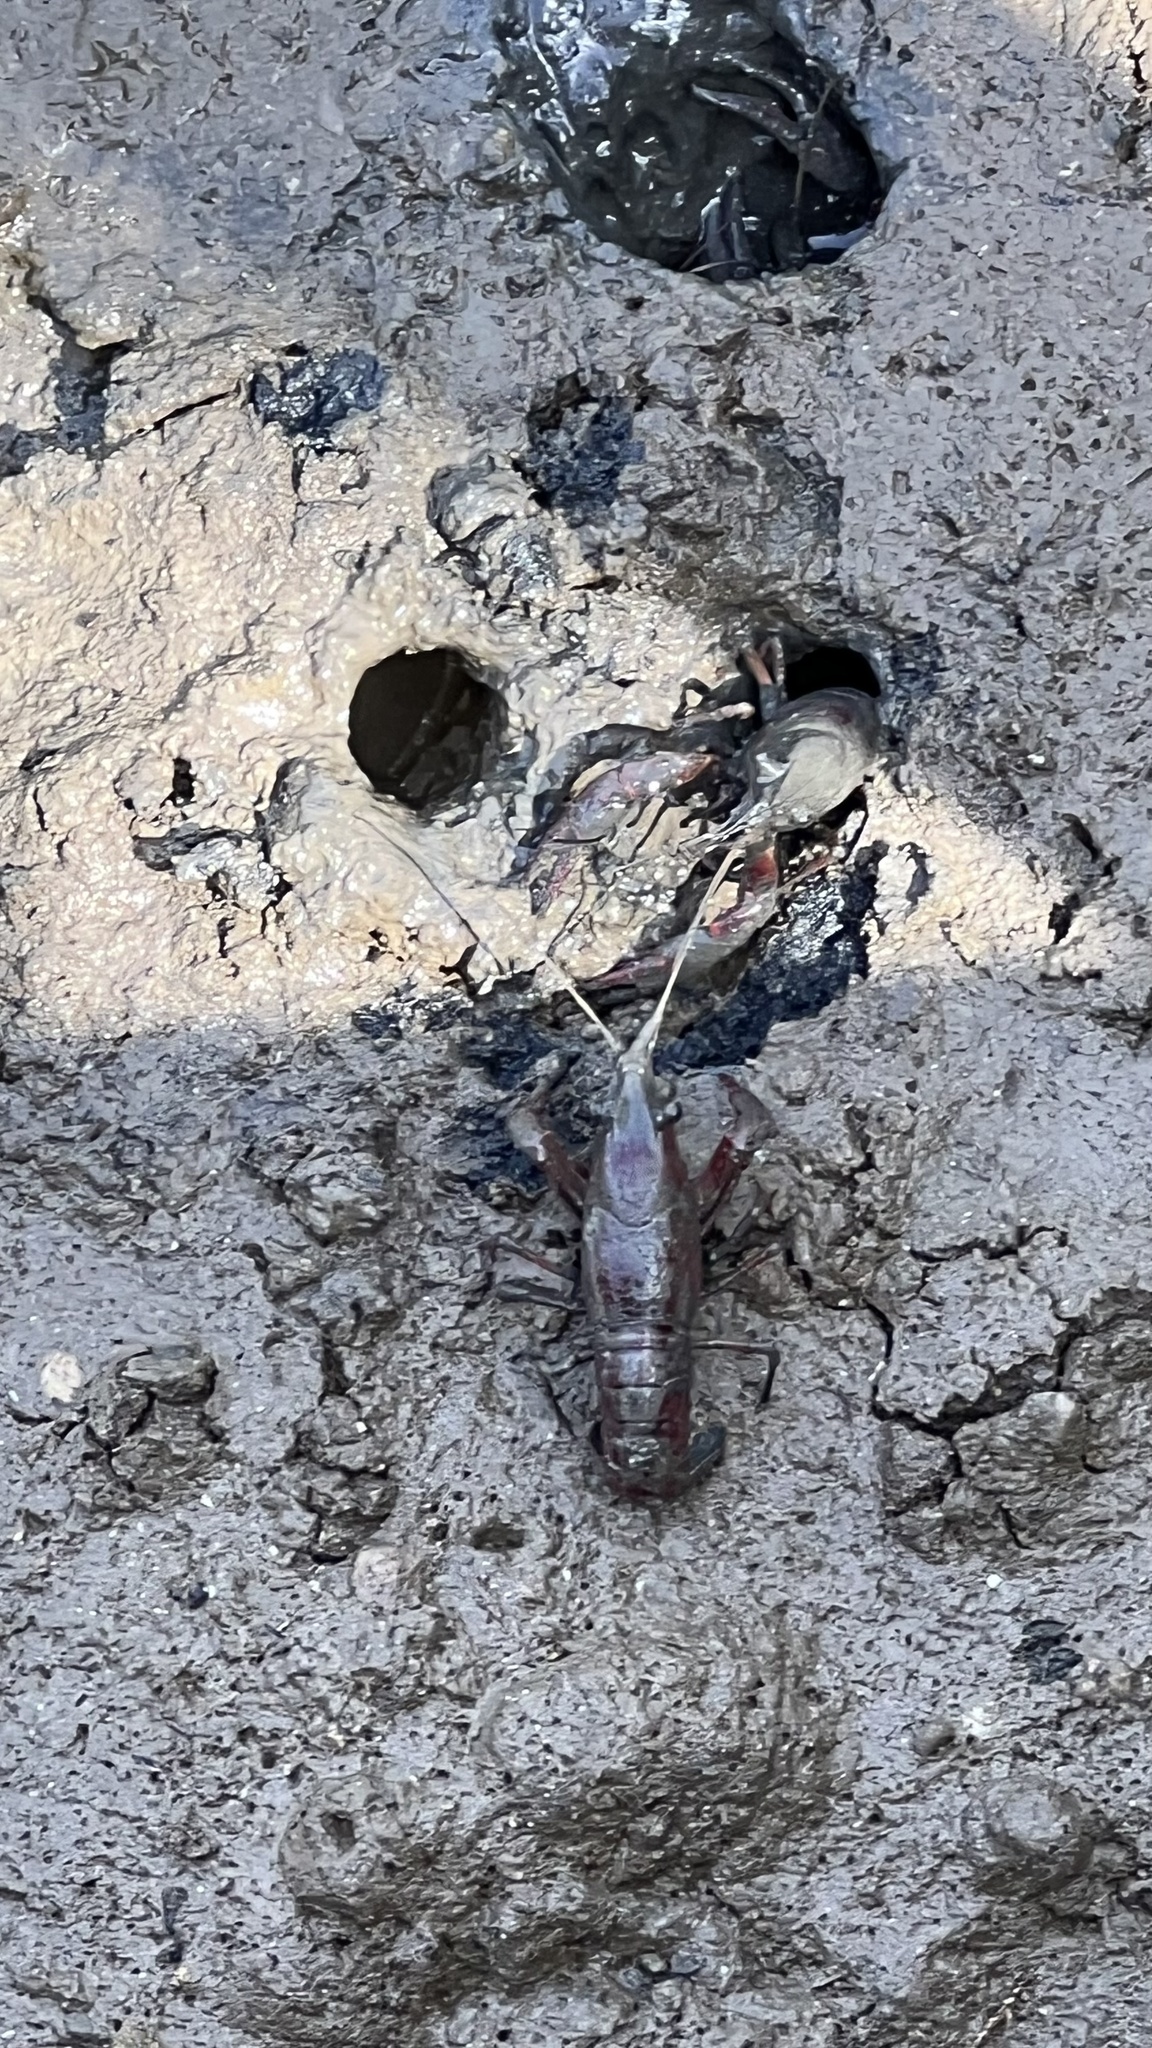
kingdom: Animalia
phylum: Arthropoda
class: Malacostraca
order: Decapoda
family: Cambaridae
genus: Procambarus
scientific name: Procambarus clarkii
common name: Red swamp crayfish
